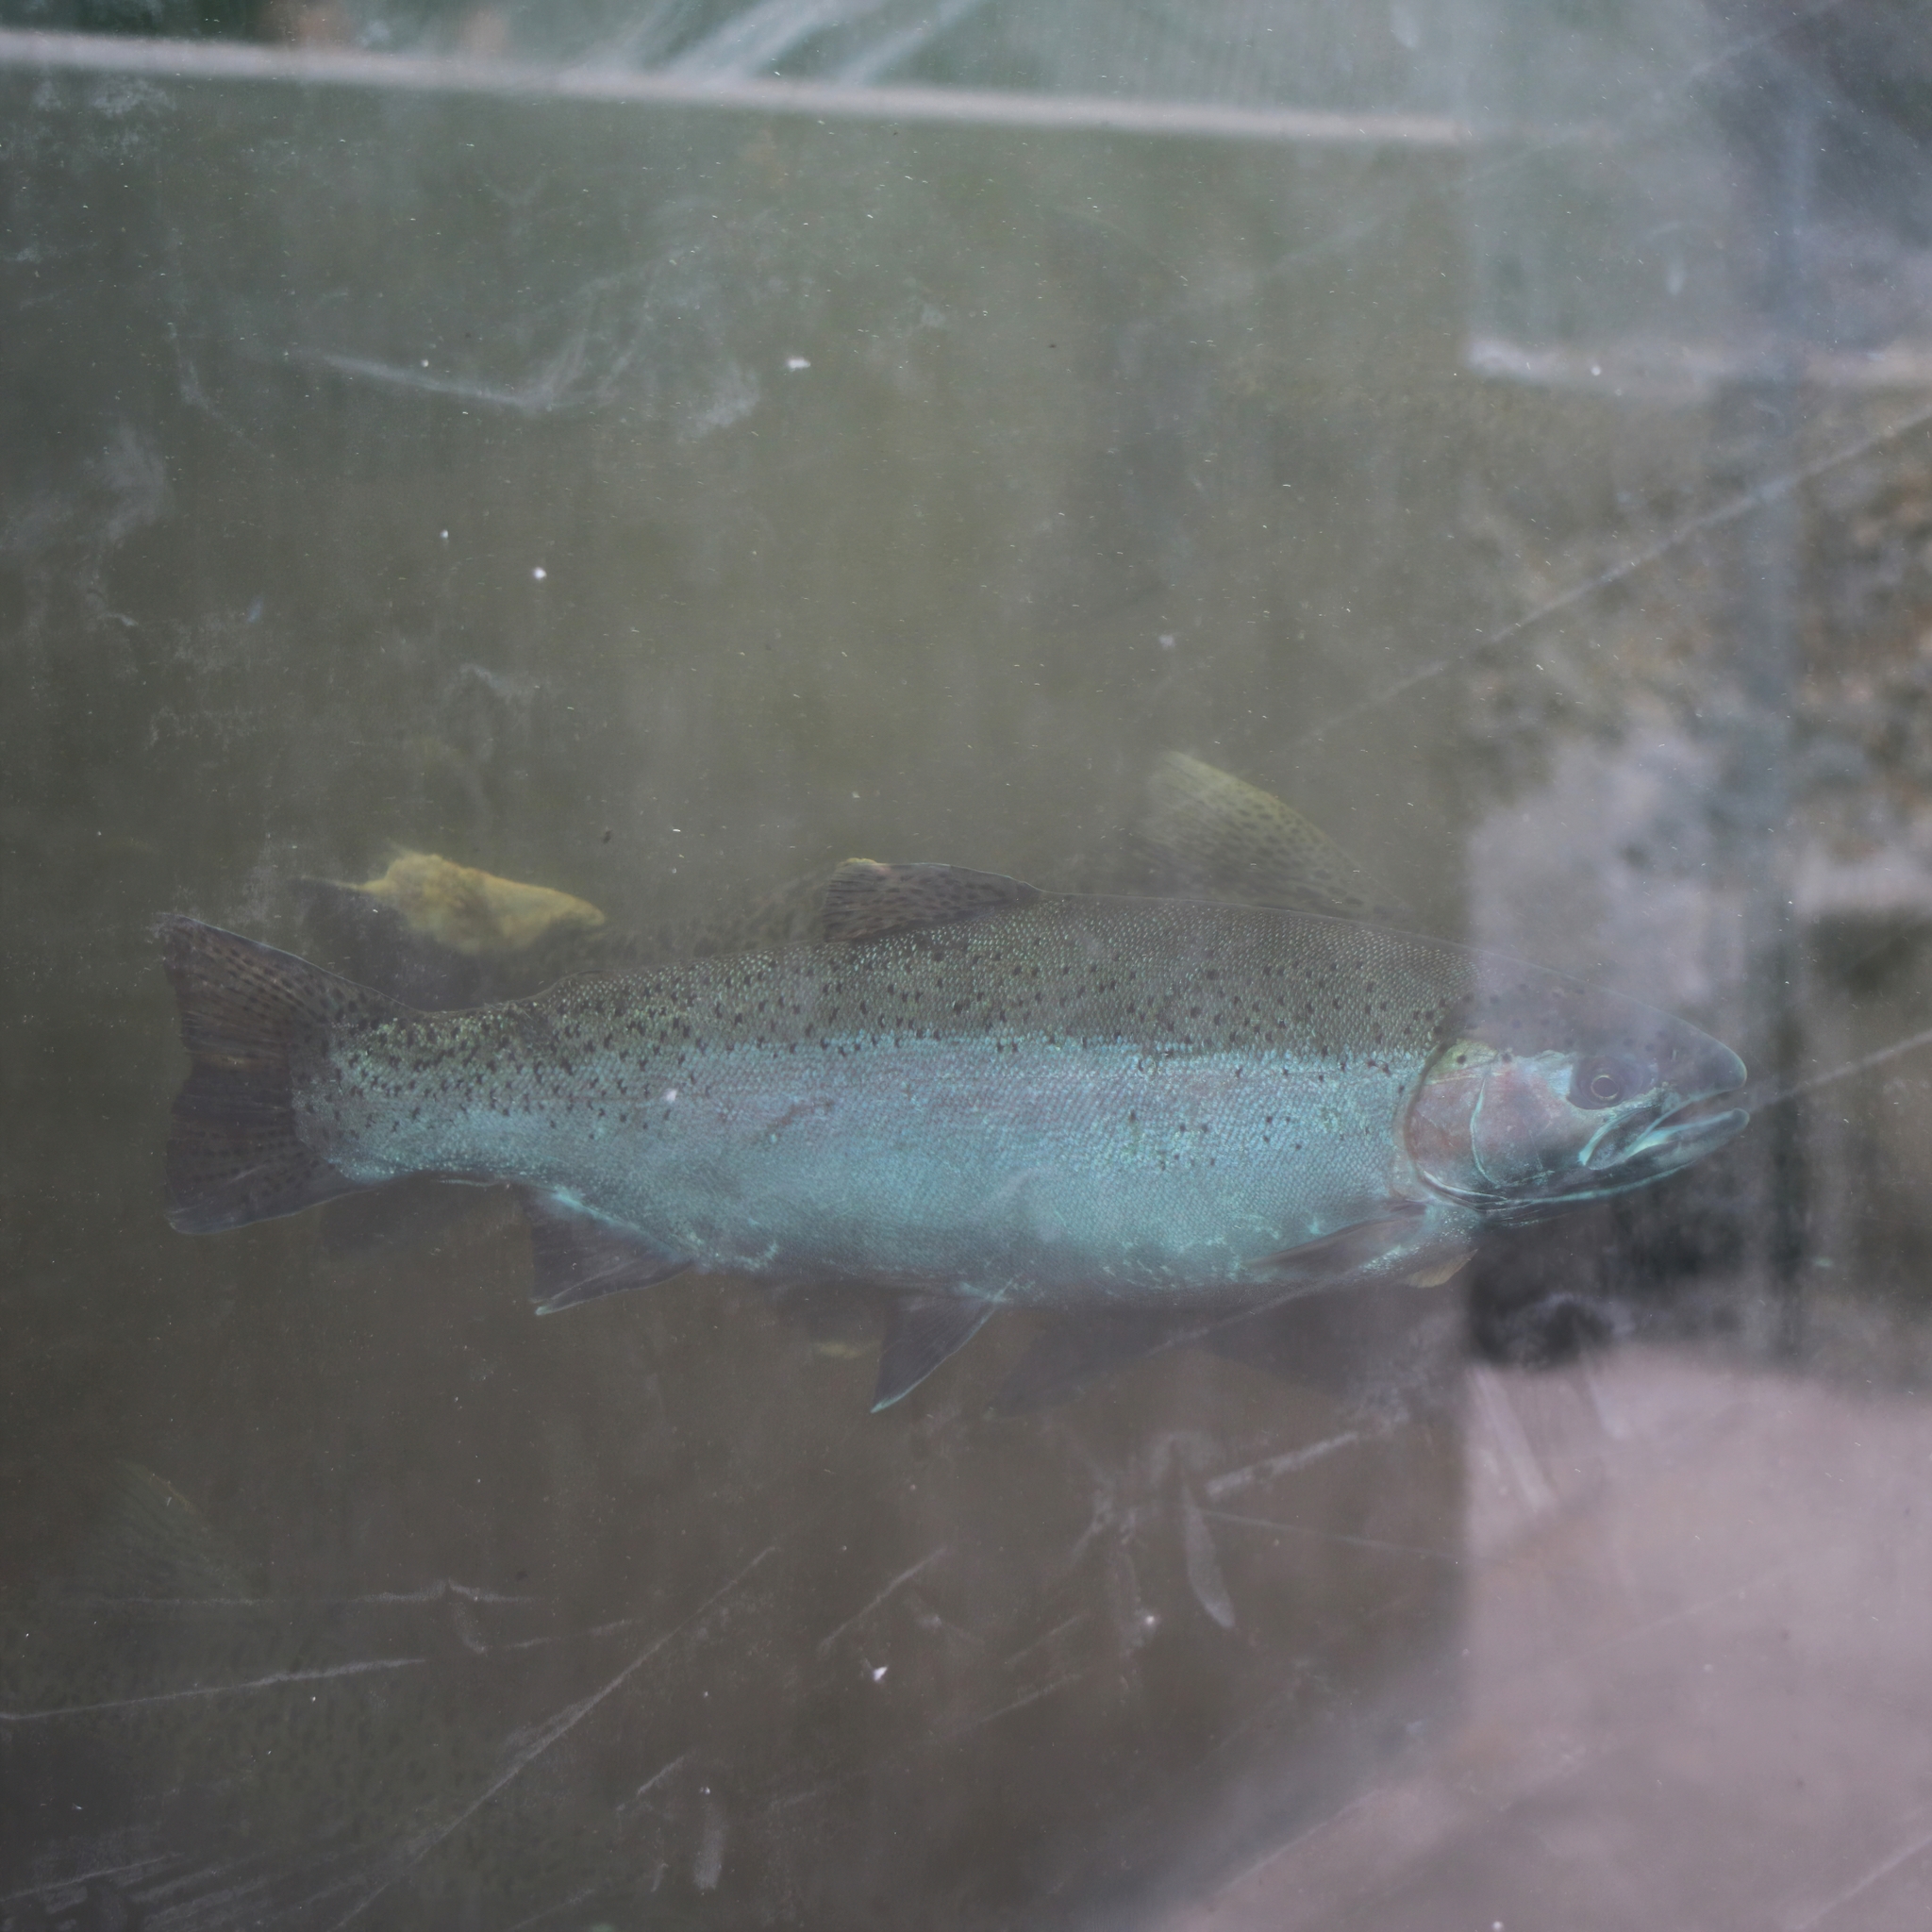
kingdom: Animalia
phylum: Chordata
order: Salmoniformes
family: Salmonidae
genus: Oncorhynchus
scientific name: Oncorhynchus mykiss
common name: Rainbow trout
